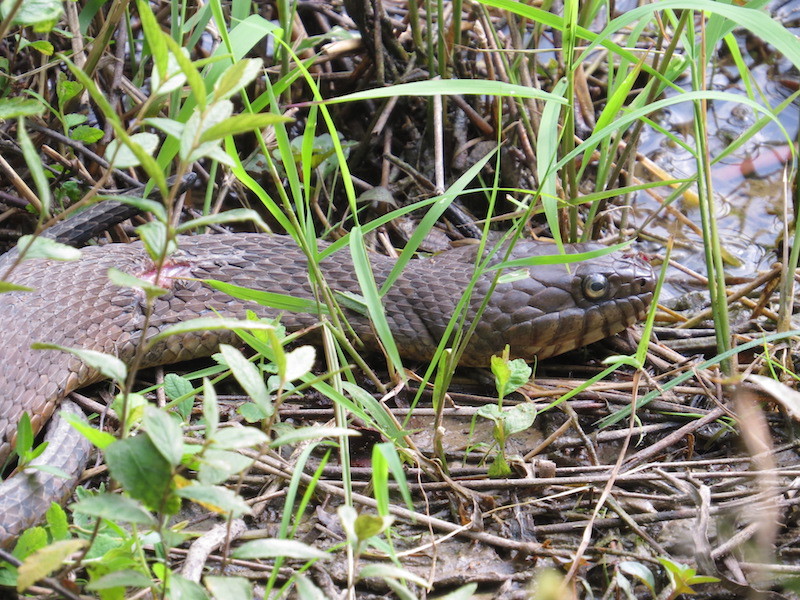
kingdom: Animalia
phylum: Chordata
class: Squamata
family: Colubridae
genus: Nerodia
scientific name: Nerodia sipedon
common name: Northern water snake
